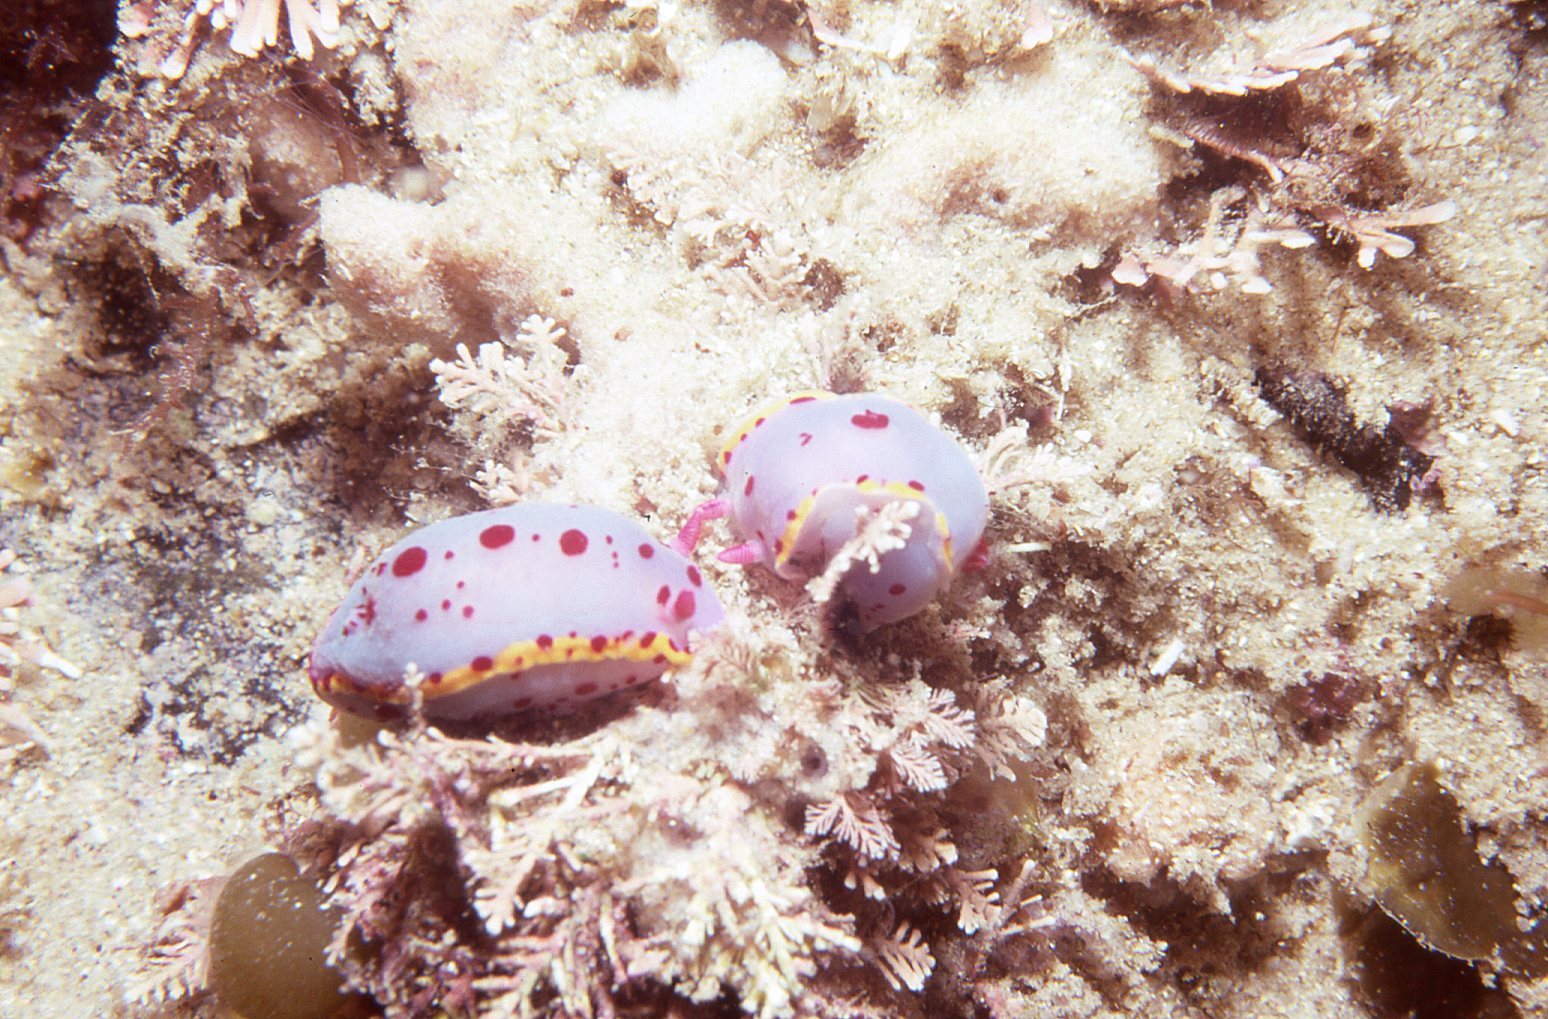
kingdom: Animalia
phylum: Mollusca
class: Gastropoda
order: Nudibranchia
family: Chromodorididae
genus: Hypselodoris
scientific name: Hypselodoris bennetti
